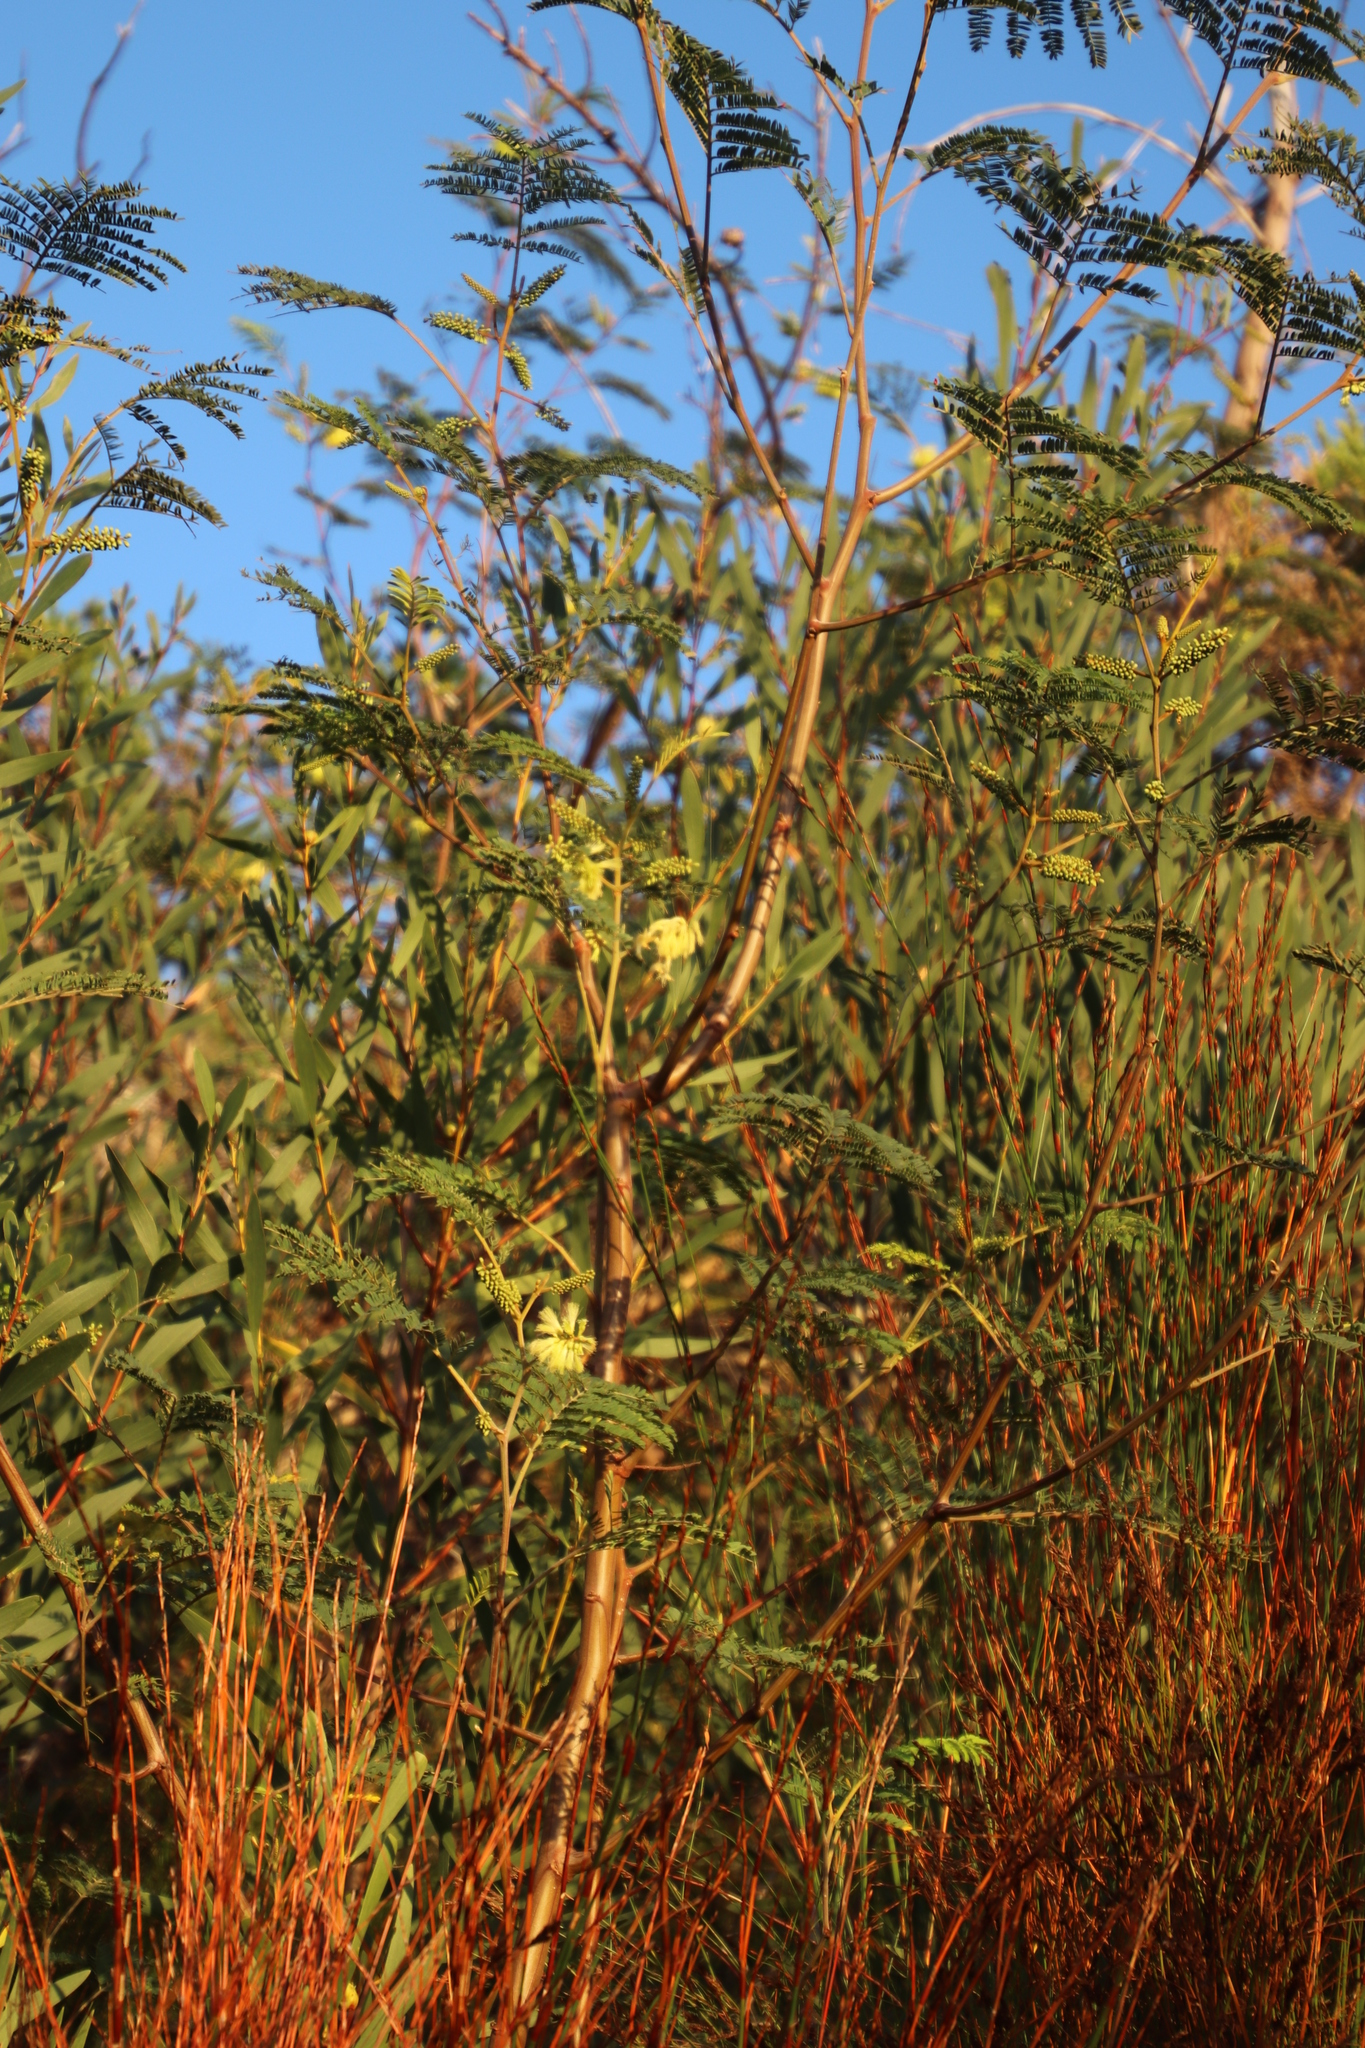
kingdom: Plantae
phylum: Tracheophyta
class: Magnoliopsida
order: Fabales
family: Fabaceae
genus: Paraserianthes
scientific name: Paraserianthes lophantha
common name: Plume albizia
